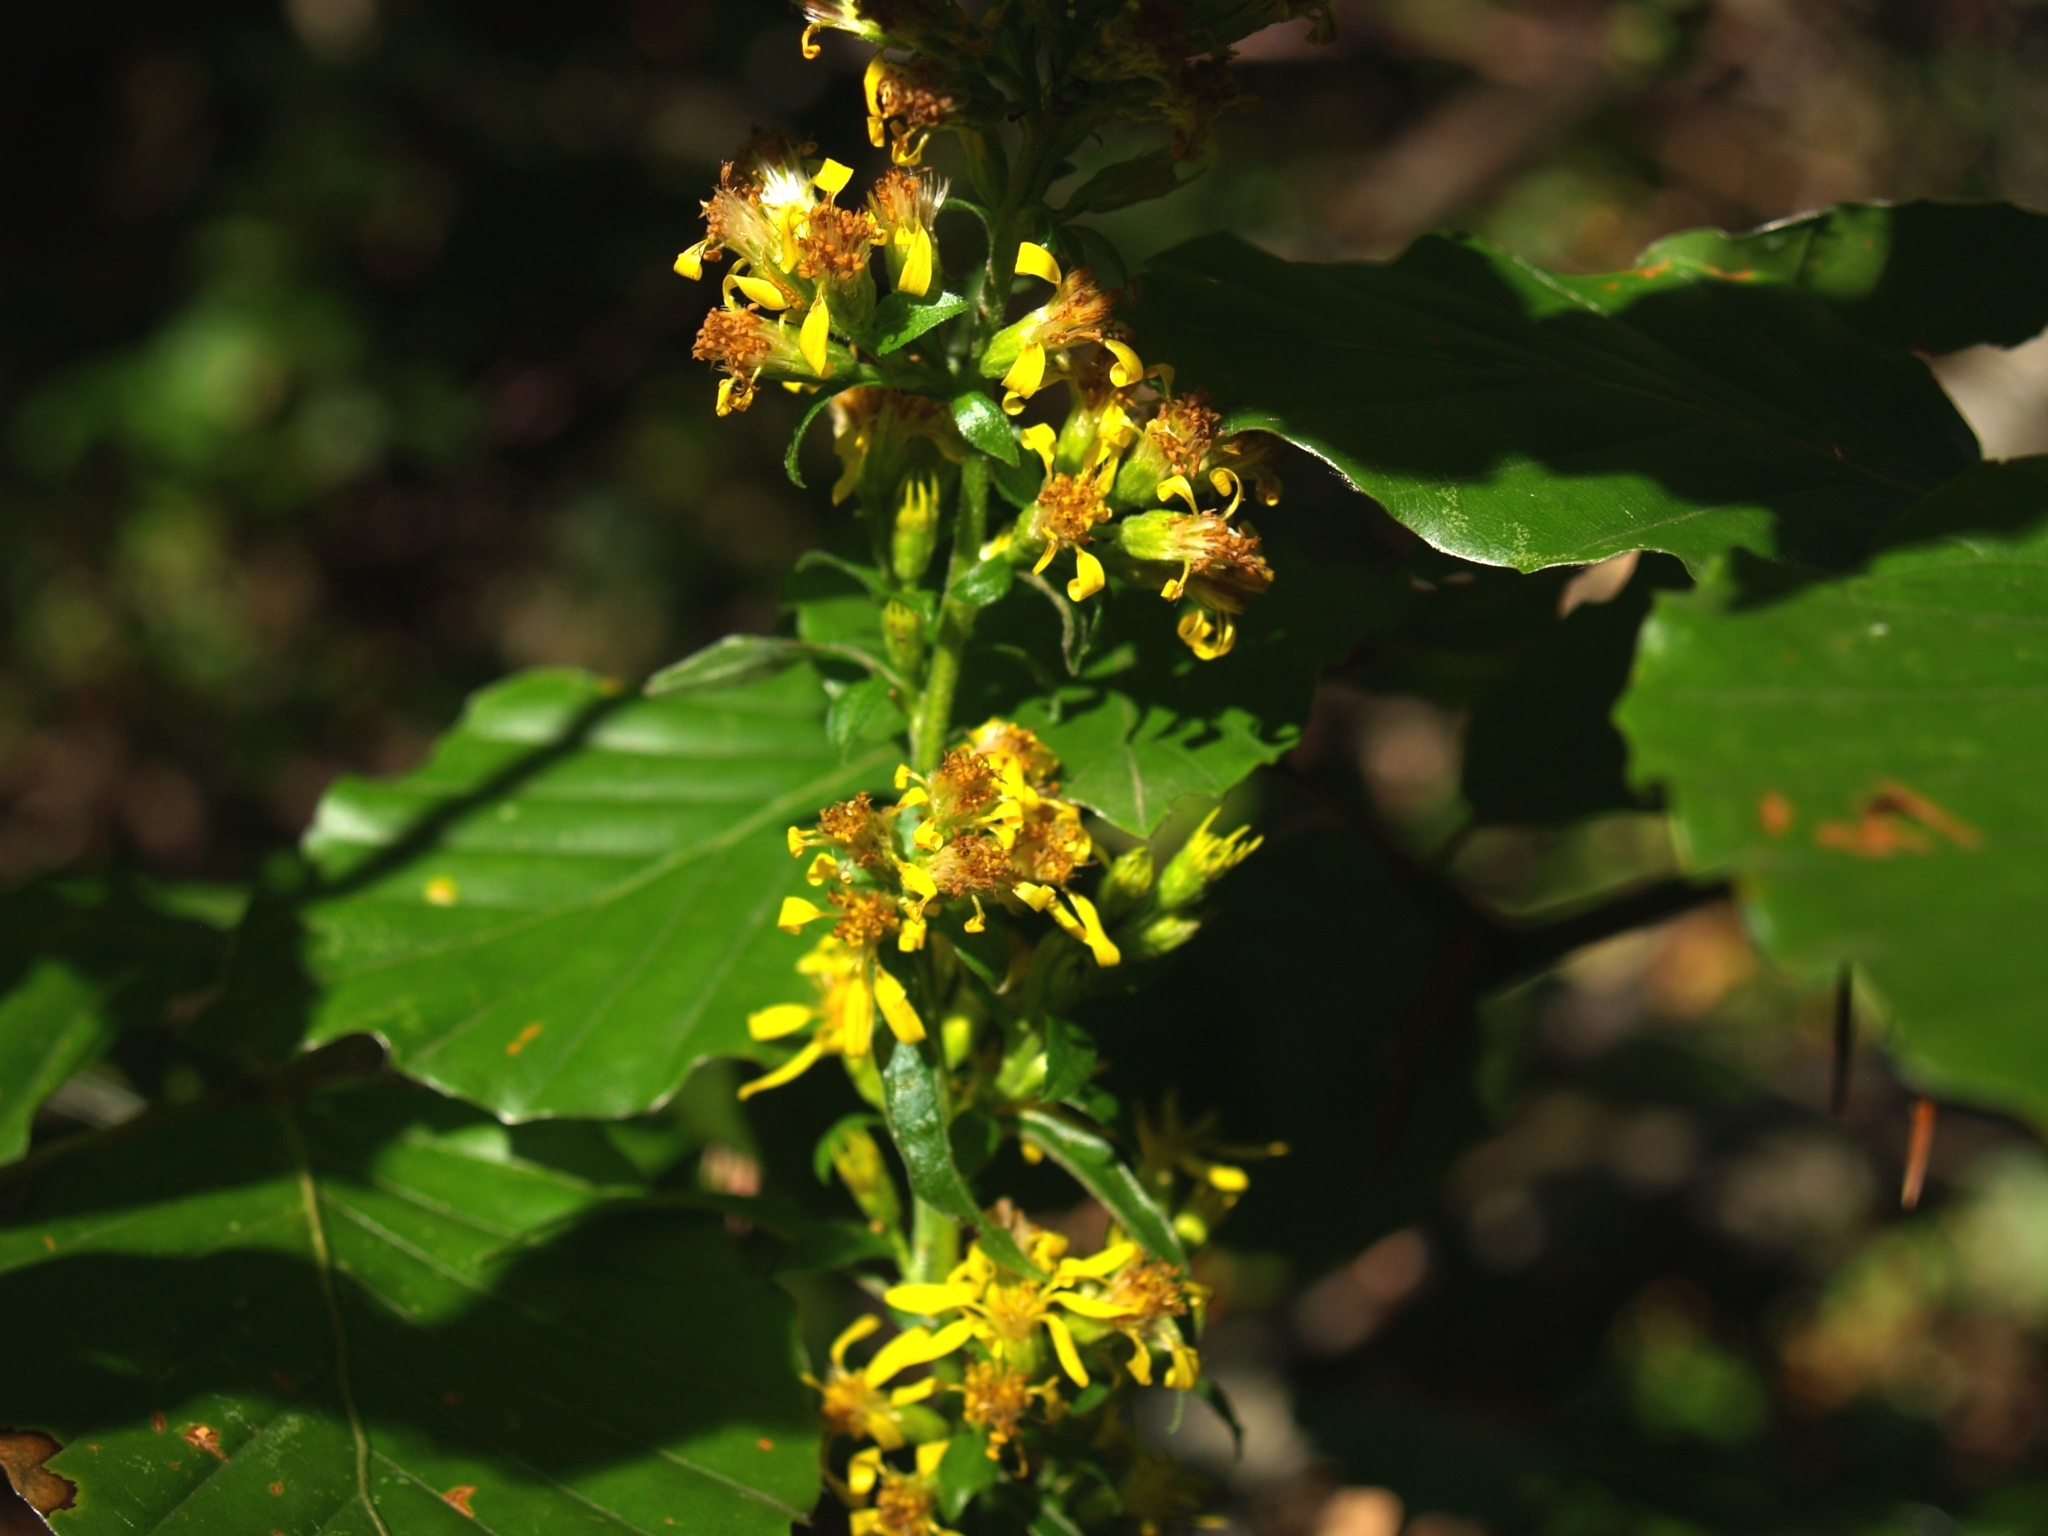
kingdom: Plantae
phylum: Tracheophyta
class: Magnoliopsida
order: Asterales
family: Asteraceae
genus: Solidago
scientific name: Solidago virgaurea
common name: Goldenrod
